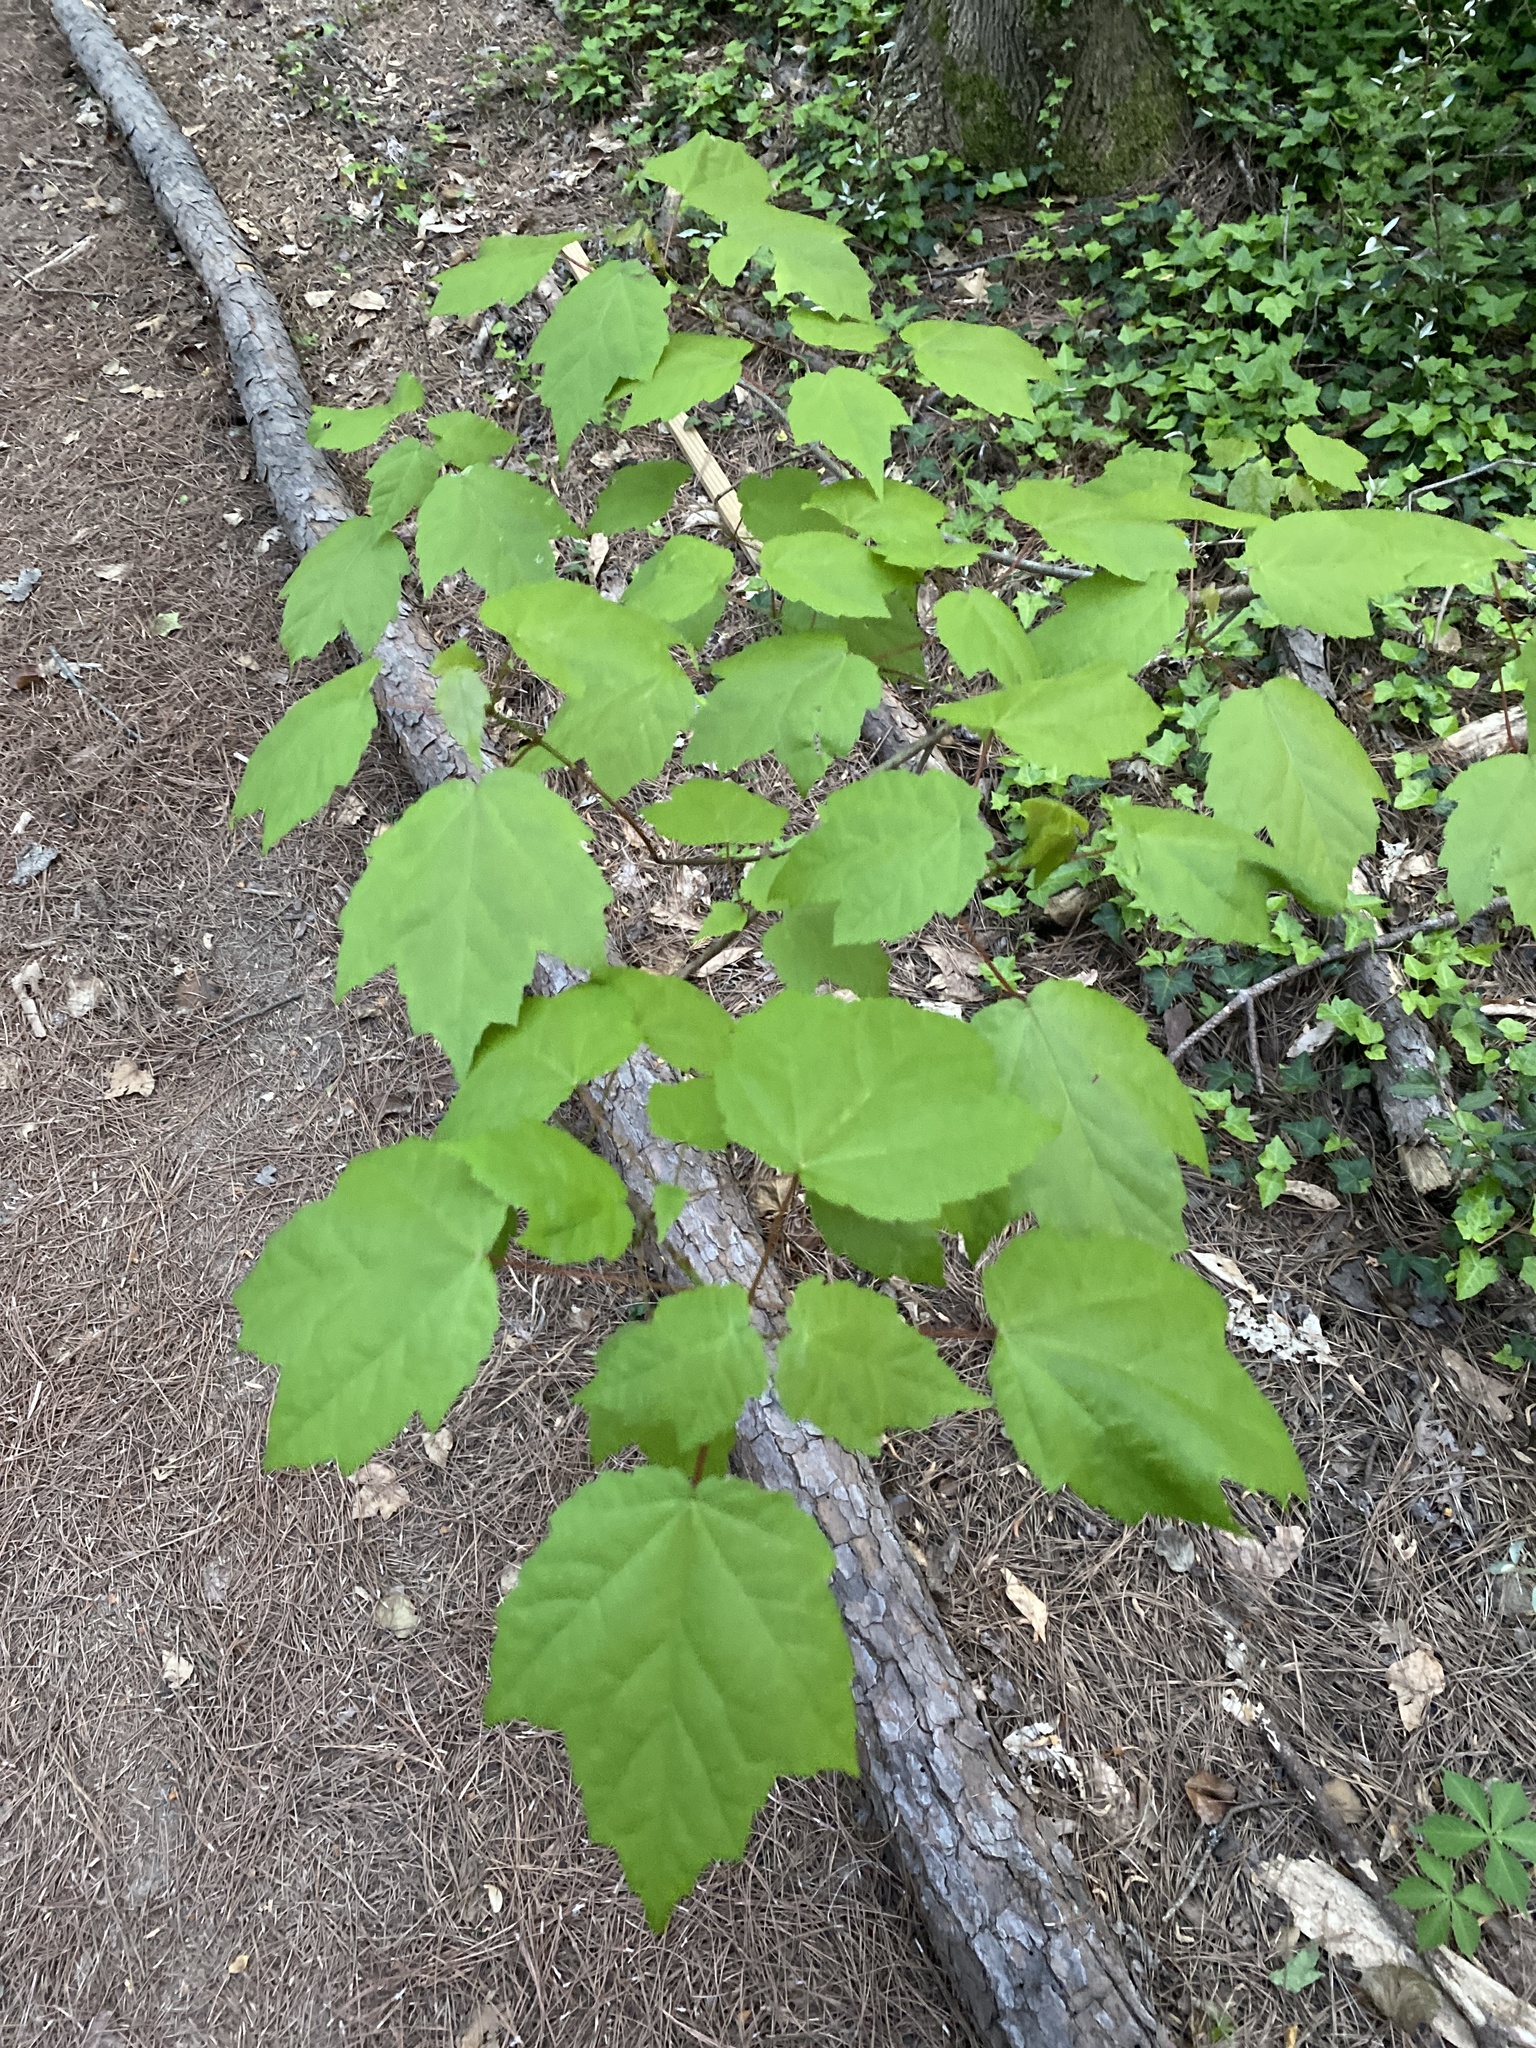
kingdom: Plantae
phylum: Tracheophyta
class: Magnoliopsida
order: Sapindales
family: Sapindaceae
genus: Acer
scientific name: Acer rubrum
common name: Red maple
